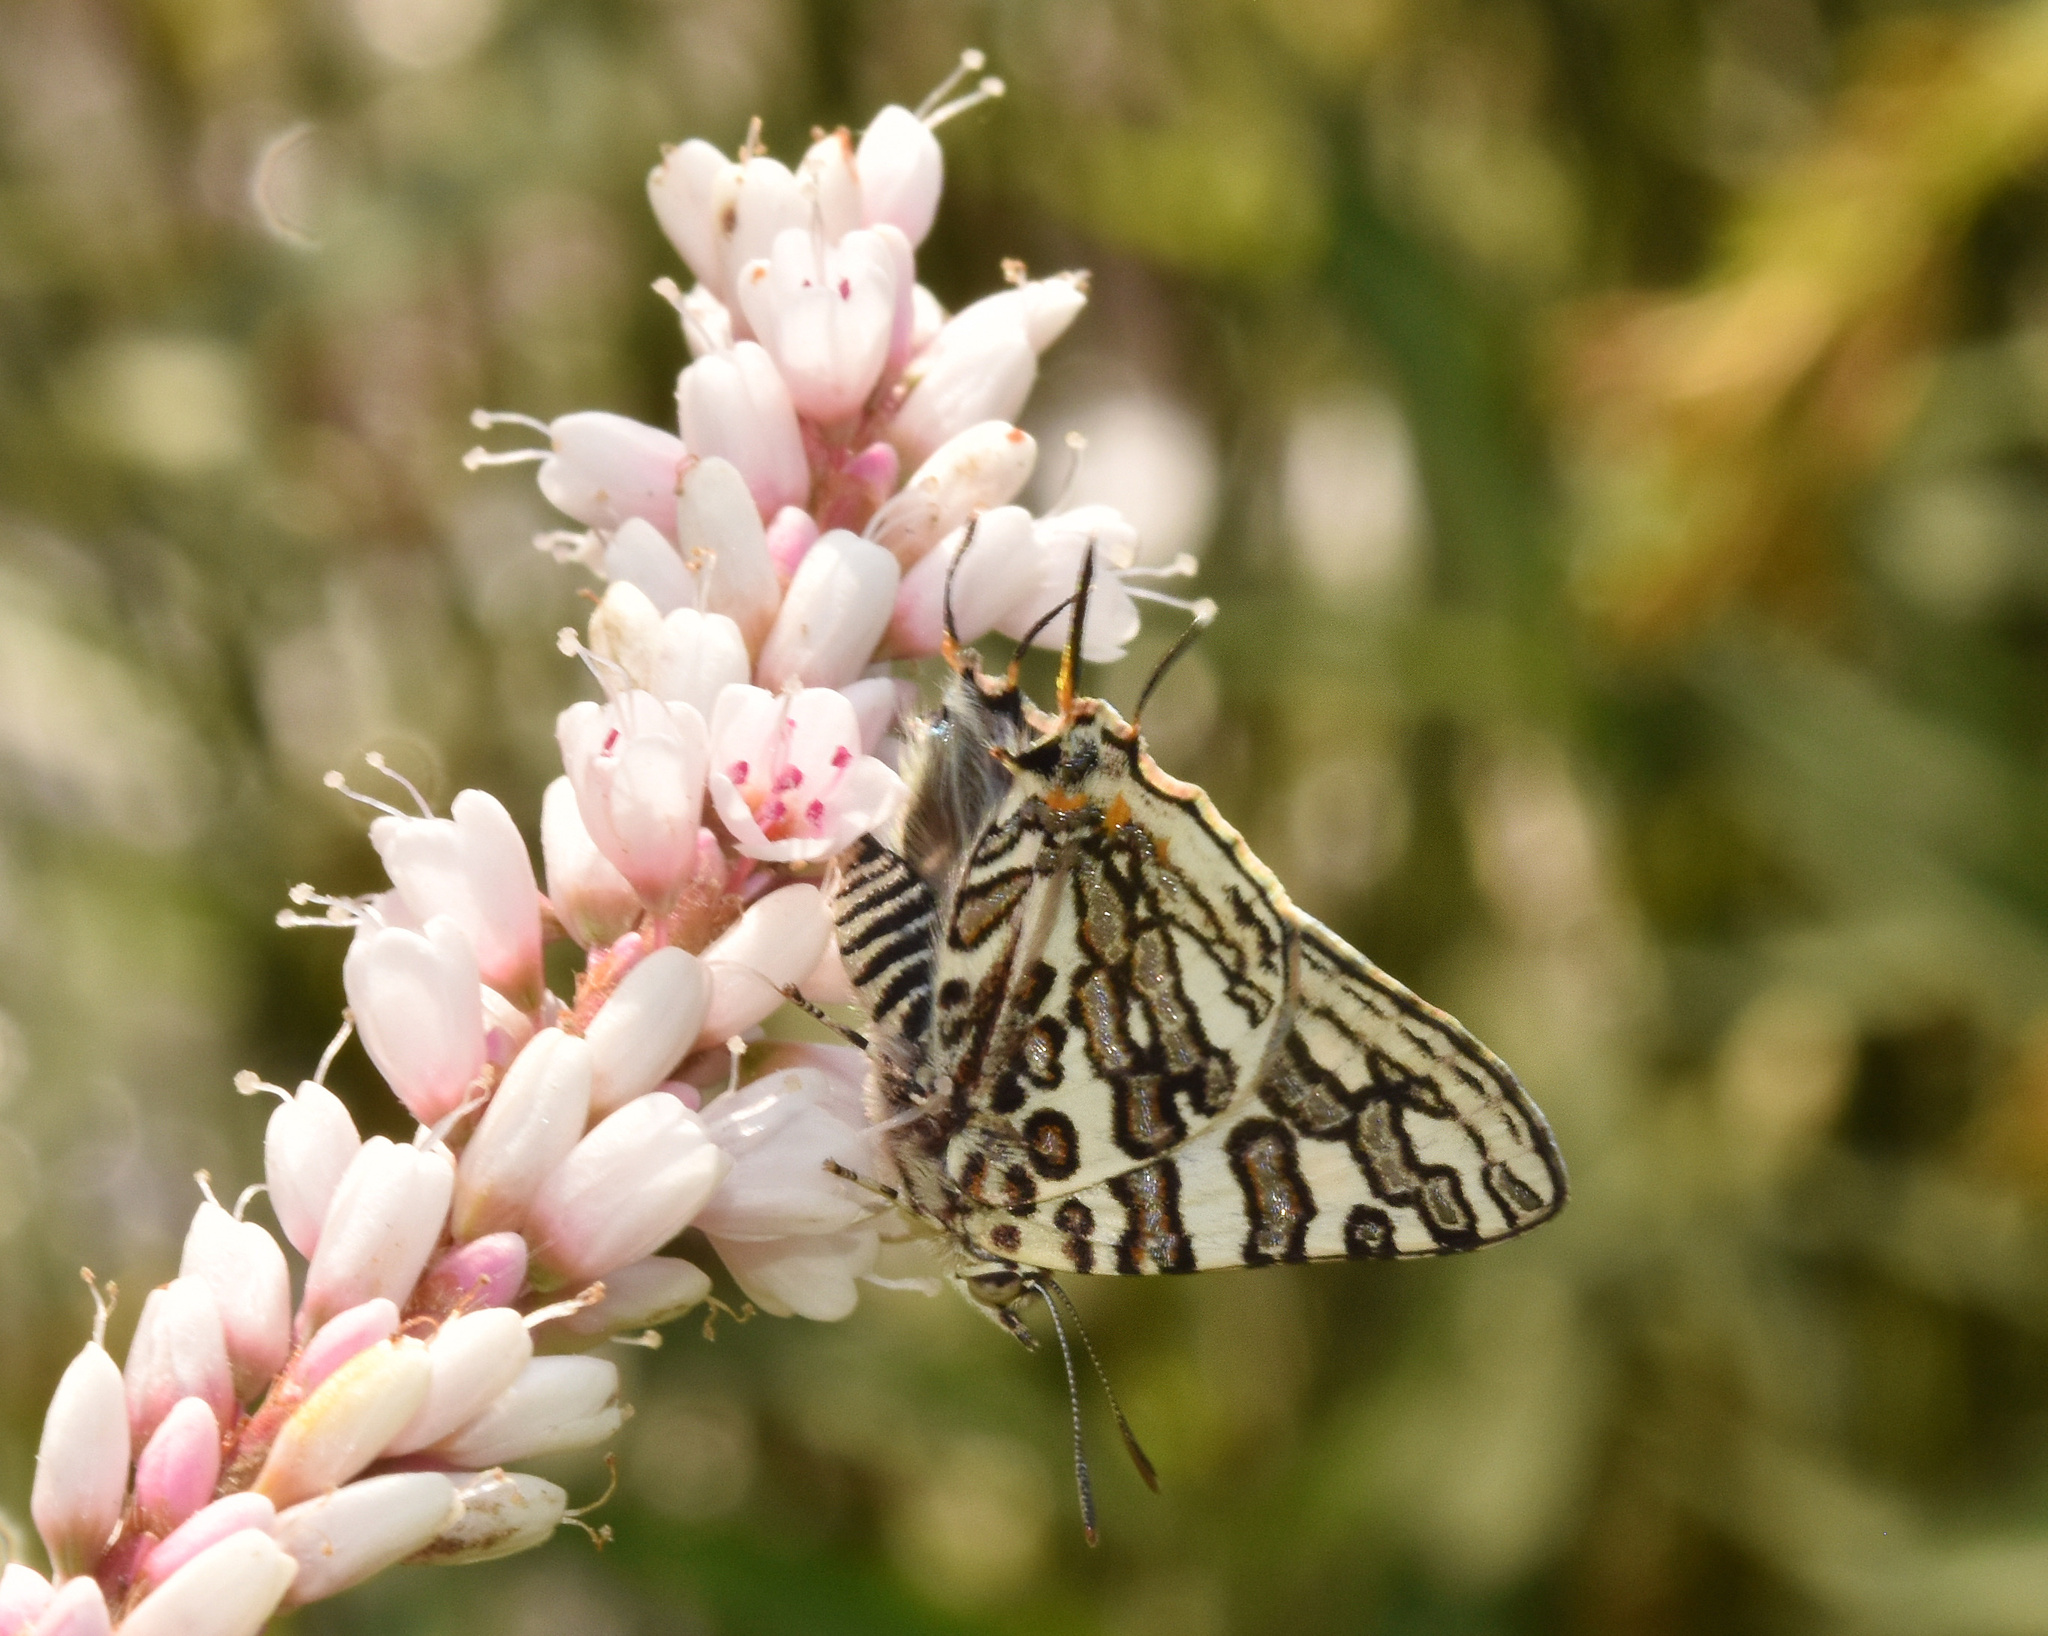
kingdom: Animalia
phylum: Arthropoda
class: Insecta
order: Lepidoptera
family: Lycaenidae
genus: Spindasis
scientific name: Spindasis ella
